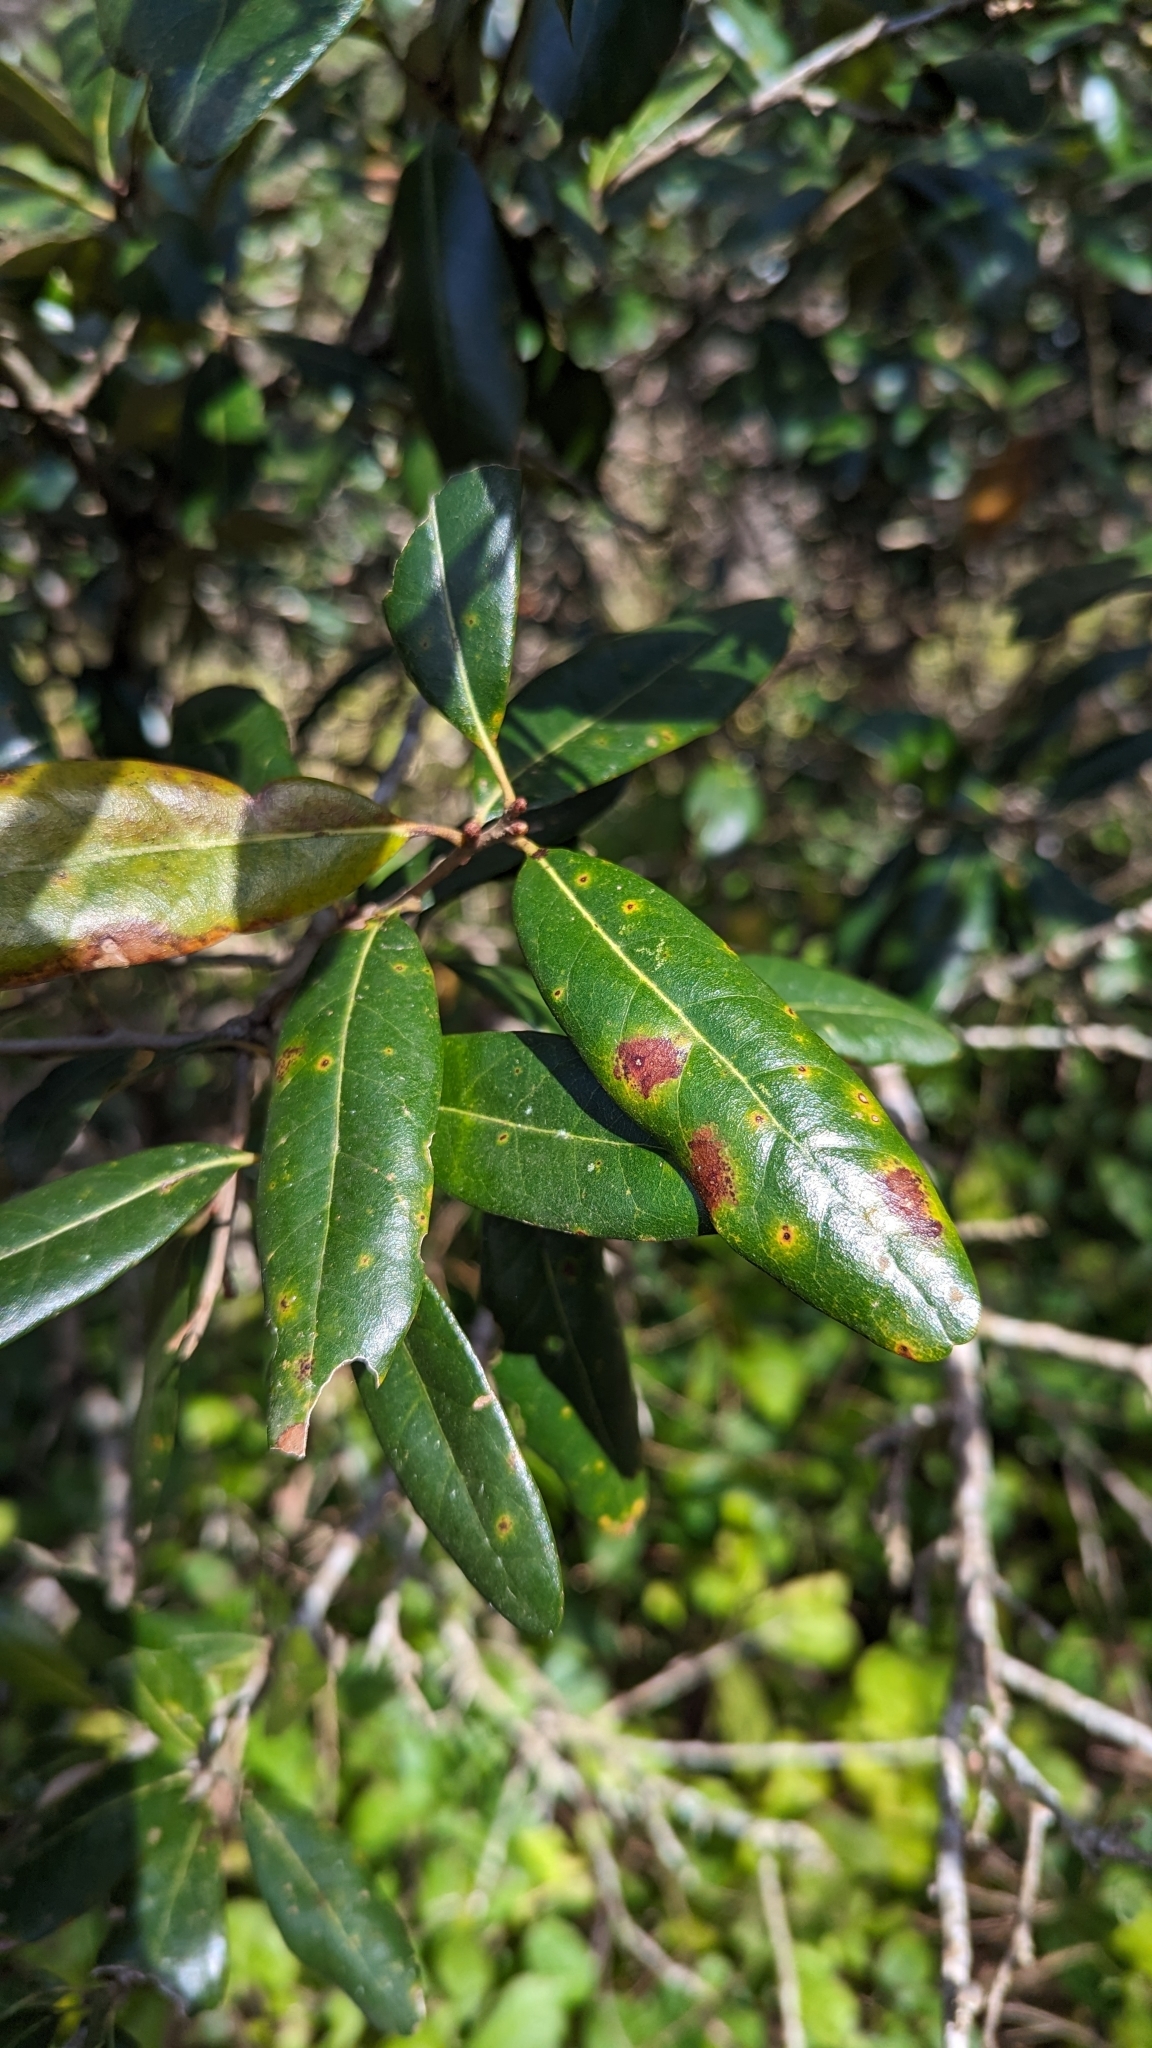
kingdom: Plantae
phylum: Tracheophyta
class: Magnoliopsida
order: Fagales
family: Fagaceae
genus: Quercus
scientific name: Quercus virginiana
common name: Southern live oak
